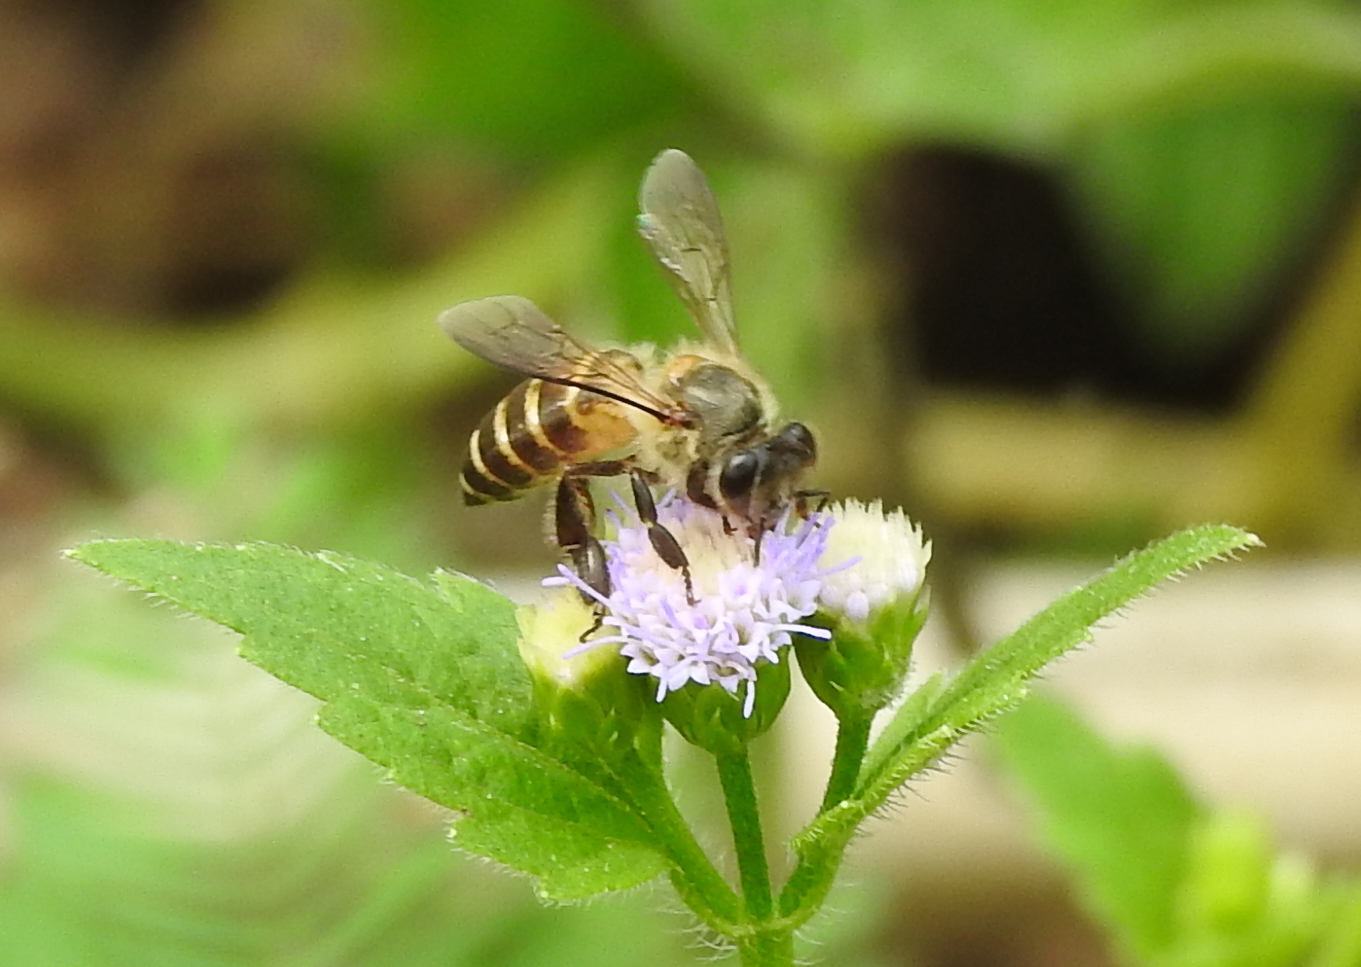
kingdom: Animalia
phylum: Arthropoda
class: Insecta
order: Hymenoptera
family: Apidae
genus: Apis
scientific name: Apis cerana
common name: Honey bee
